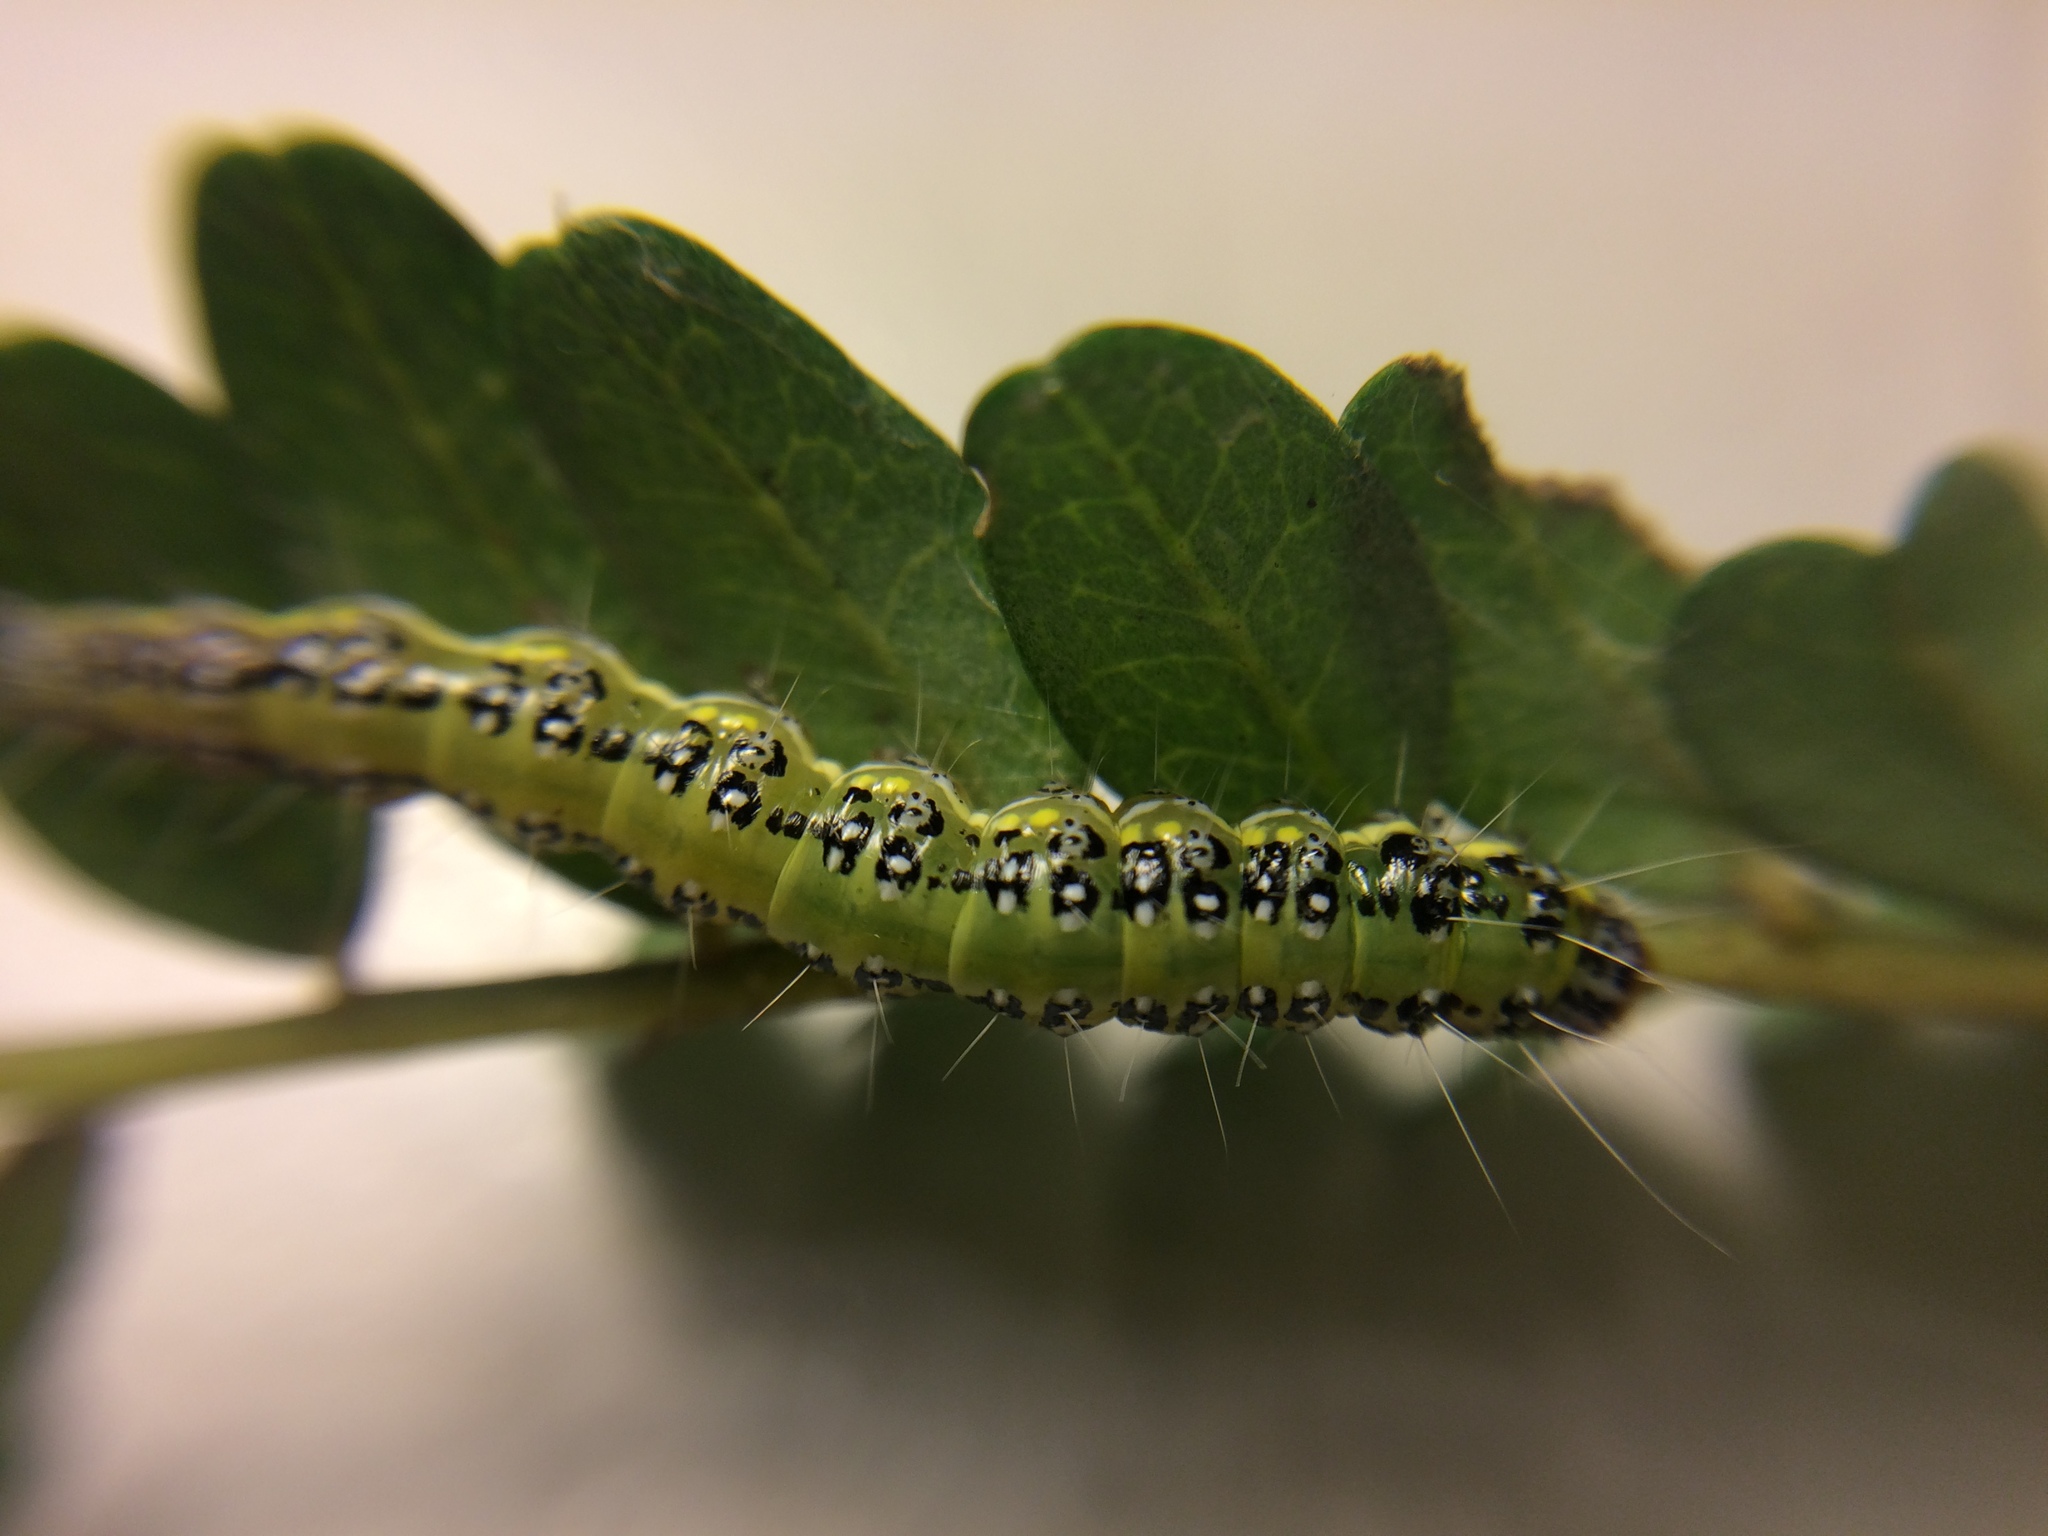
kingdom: Animalia
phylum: Arthropoda
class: Insecta
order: Lepidoptera
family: Crambidae
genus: Uresiphita
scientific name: Uresiphita
